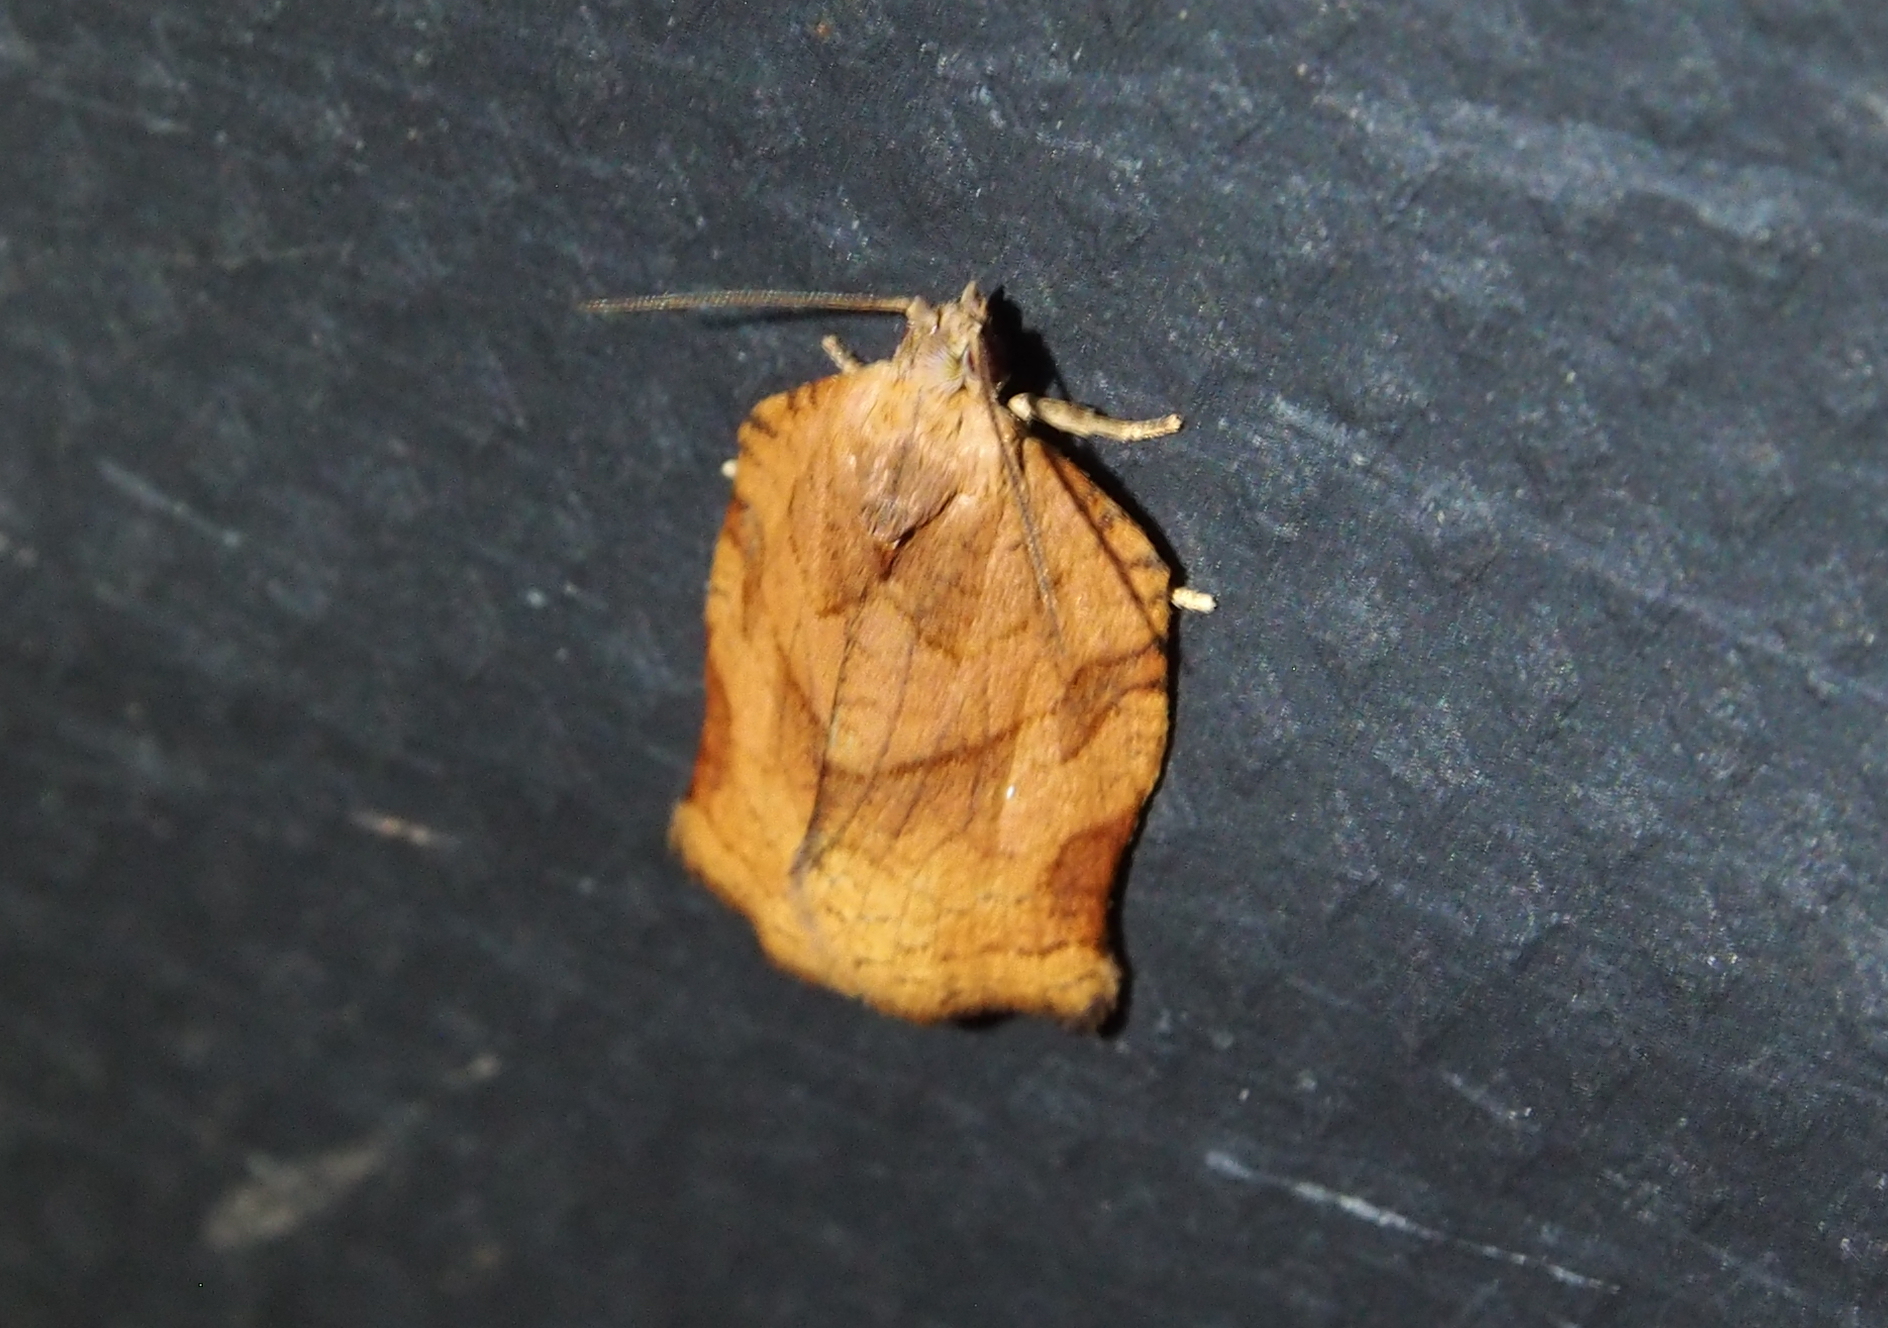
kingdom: Animalia
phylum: Arthropoda
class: Insecta
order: Lepidoptera
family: Tortricidae
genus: Archips
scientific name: Archips purpurana
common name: Omnivorous leafroller
